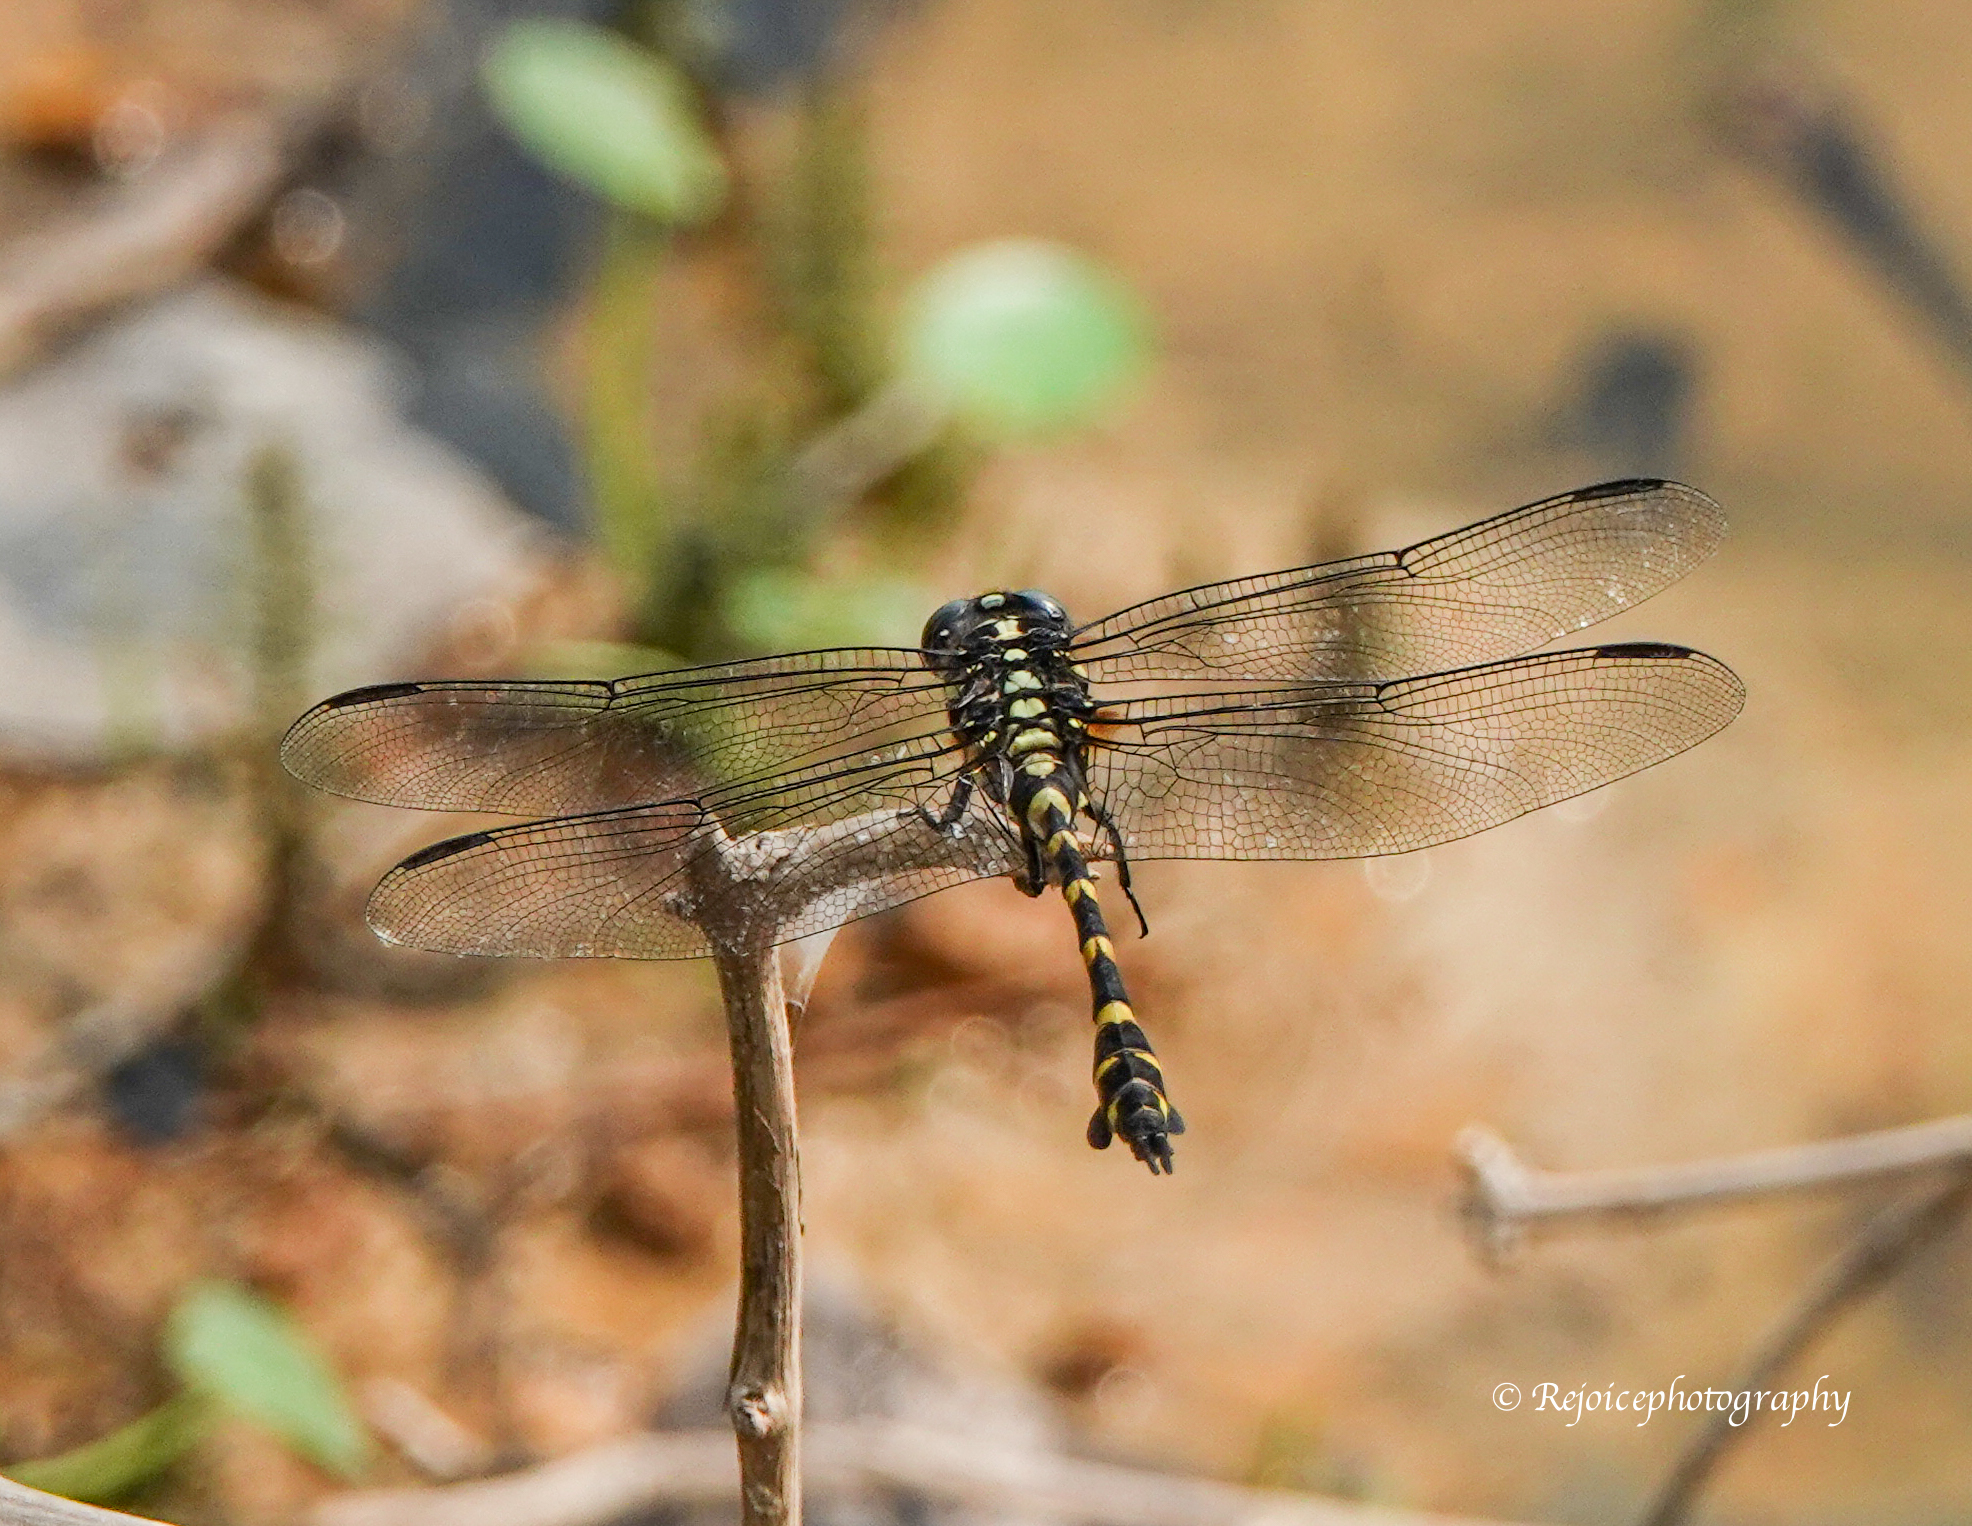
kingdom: Animalia
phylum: Arthropoda
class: Insecta
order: Odonata
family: Gomphidae
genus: Ictinogomphus
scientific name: Ictinogomphus rapax
